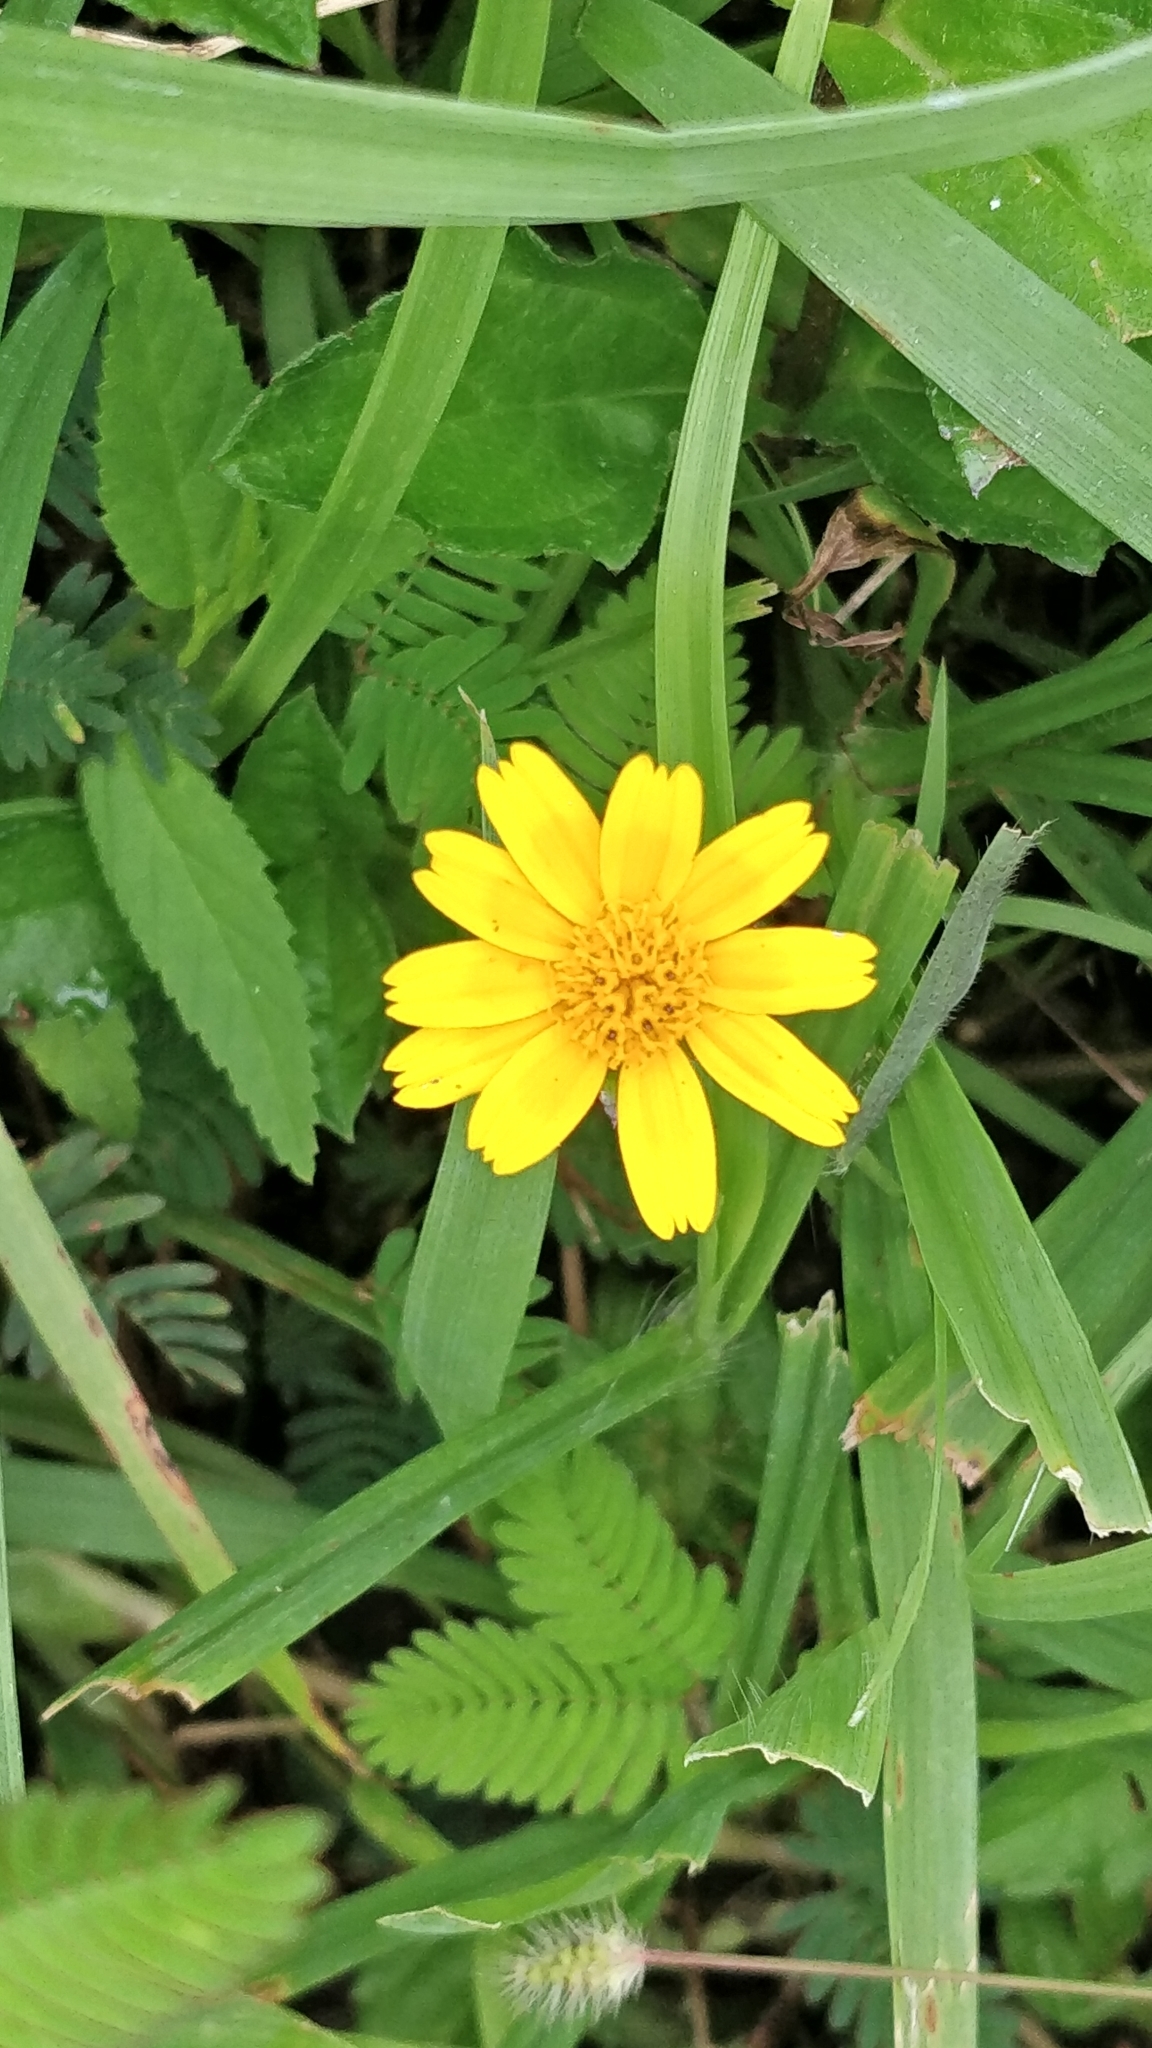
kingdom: Plantae
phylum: Tracheophyta
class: Magnoliopsida
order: Asterales
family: Asteraceae
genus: Sphagneticola
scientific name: Sphagneticola trilobata
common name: Bay biscayne creeping-oxeye
